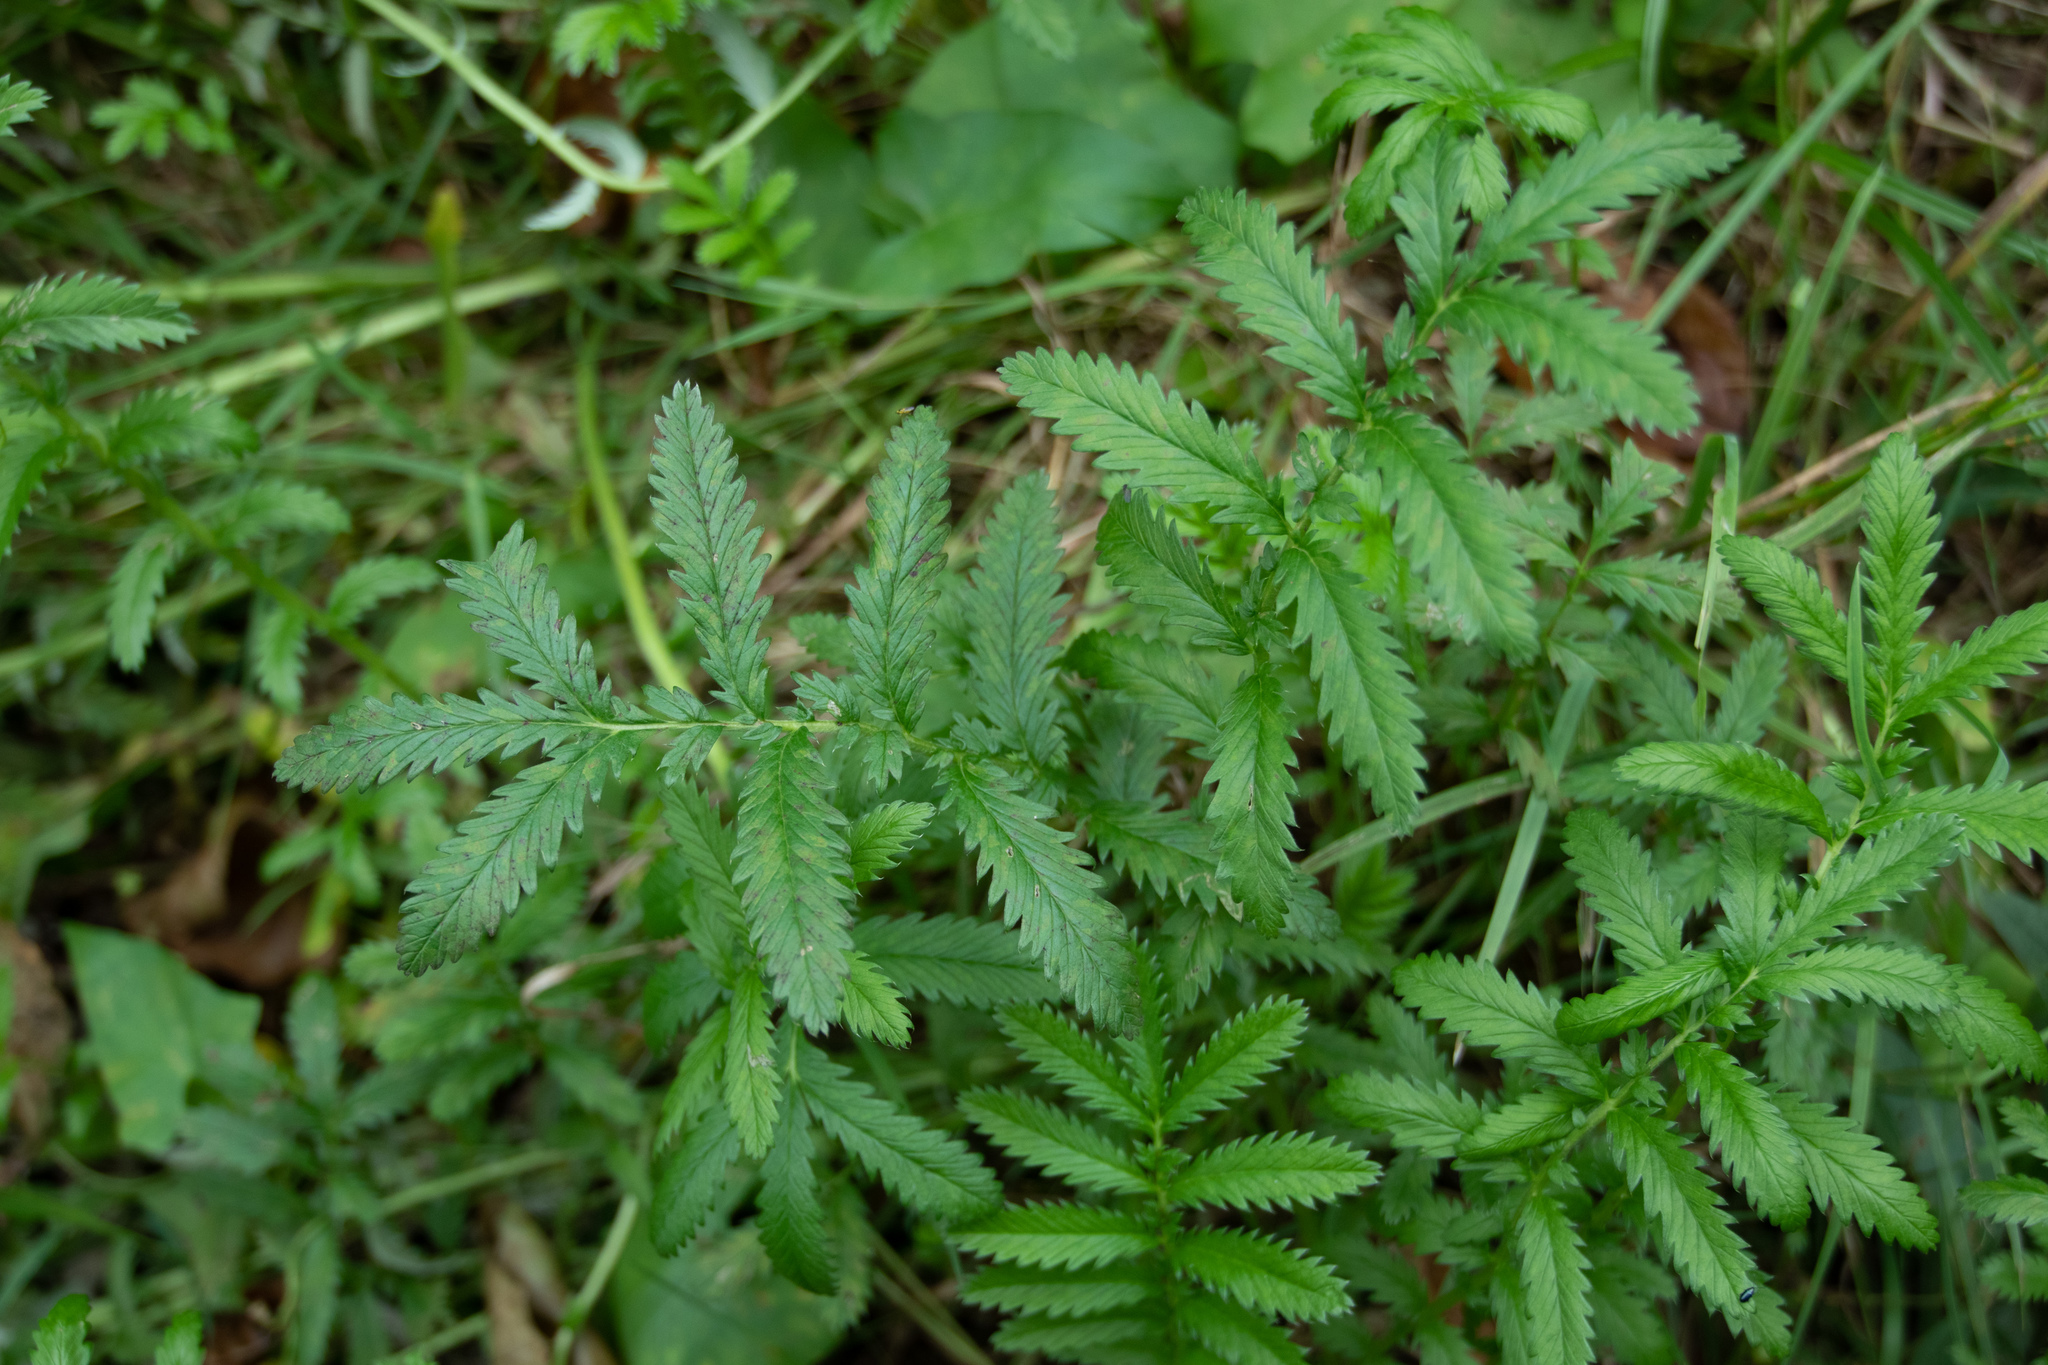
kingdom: Plantae
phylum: Tracheophyta
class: Magnoliopsida
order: Rosales
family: Rosaceae
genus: Argentina
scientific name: Argentina anserina
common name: Common silverweed
